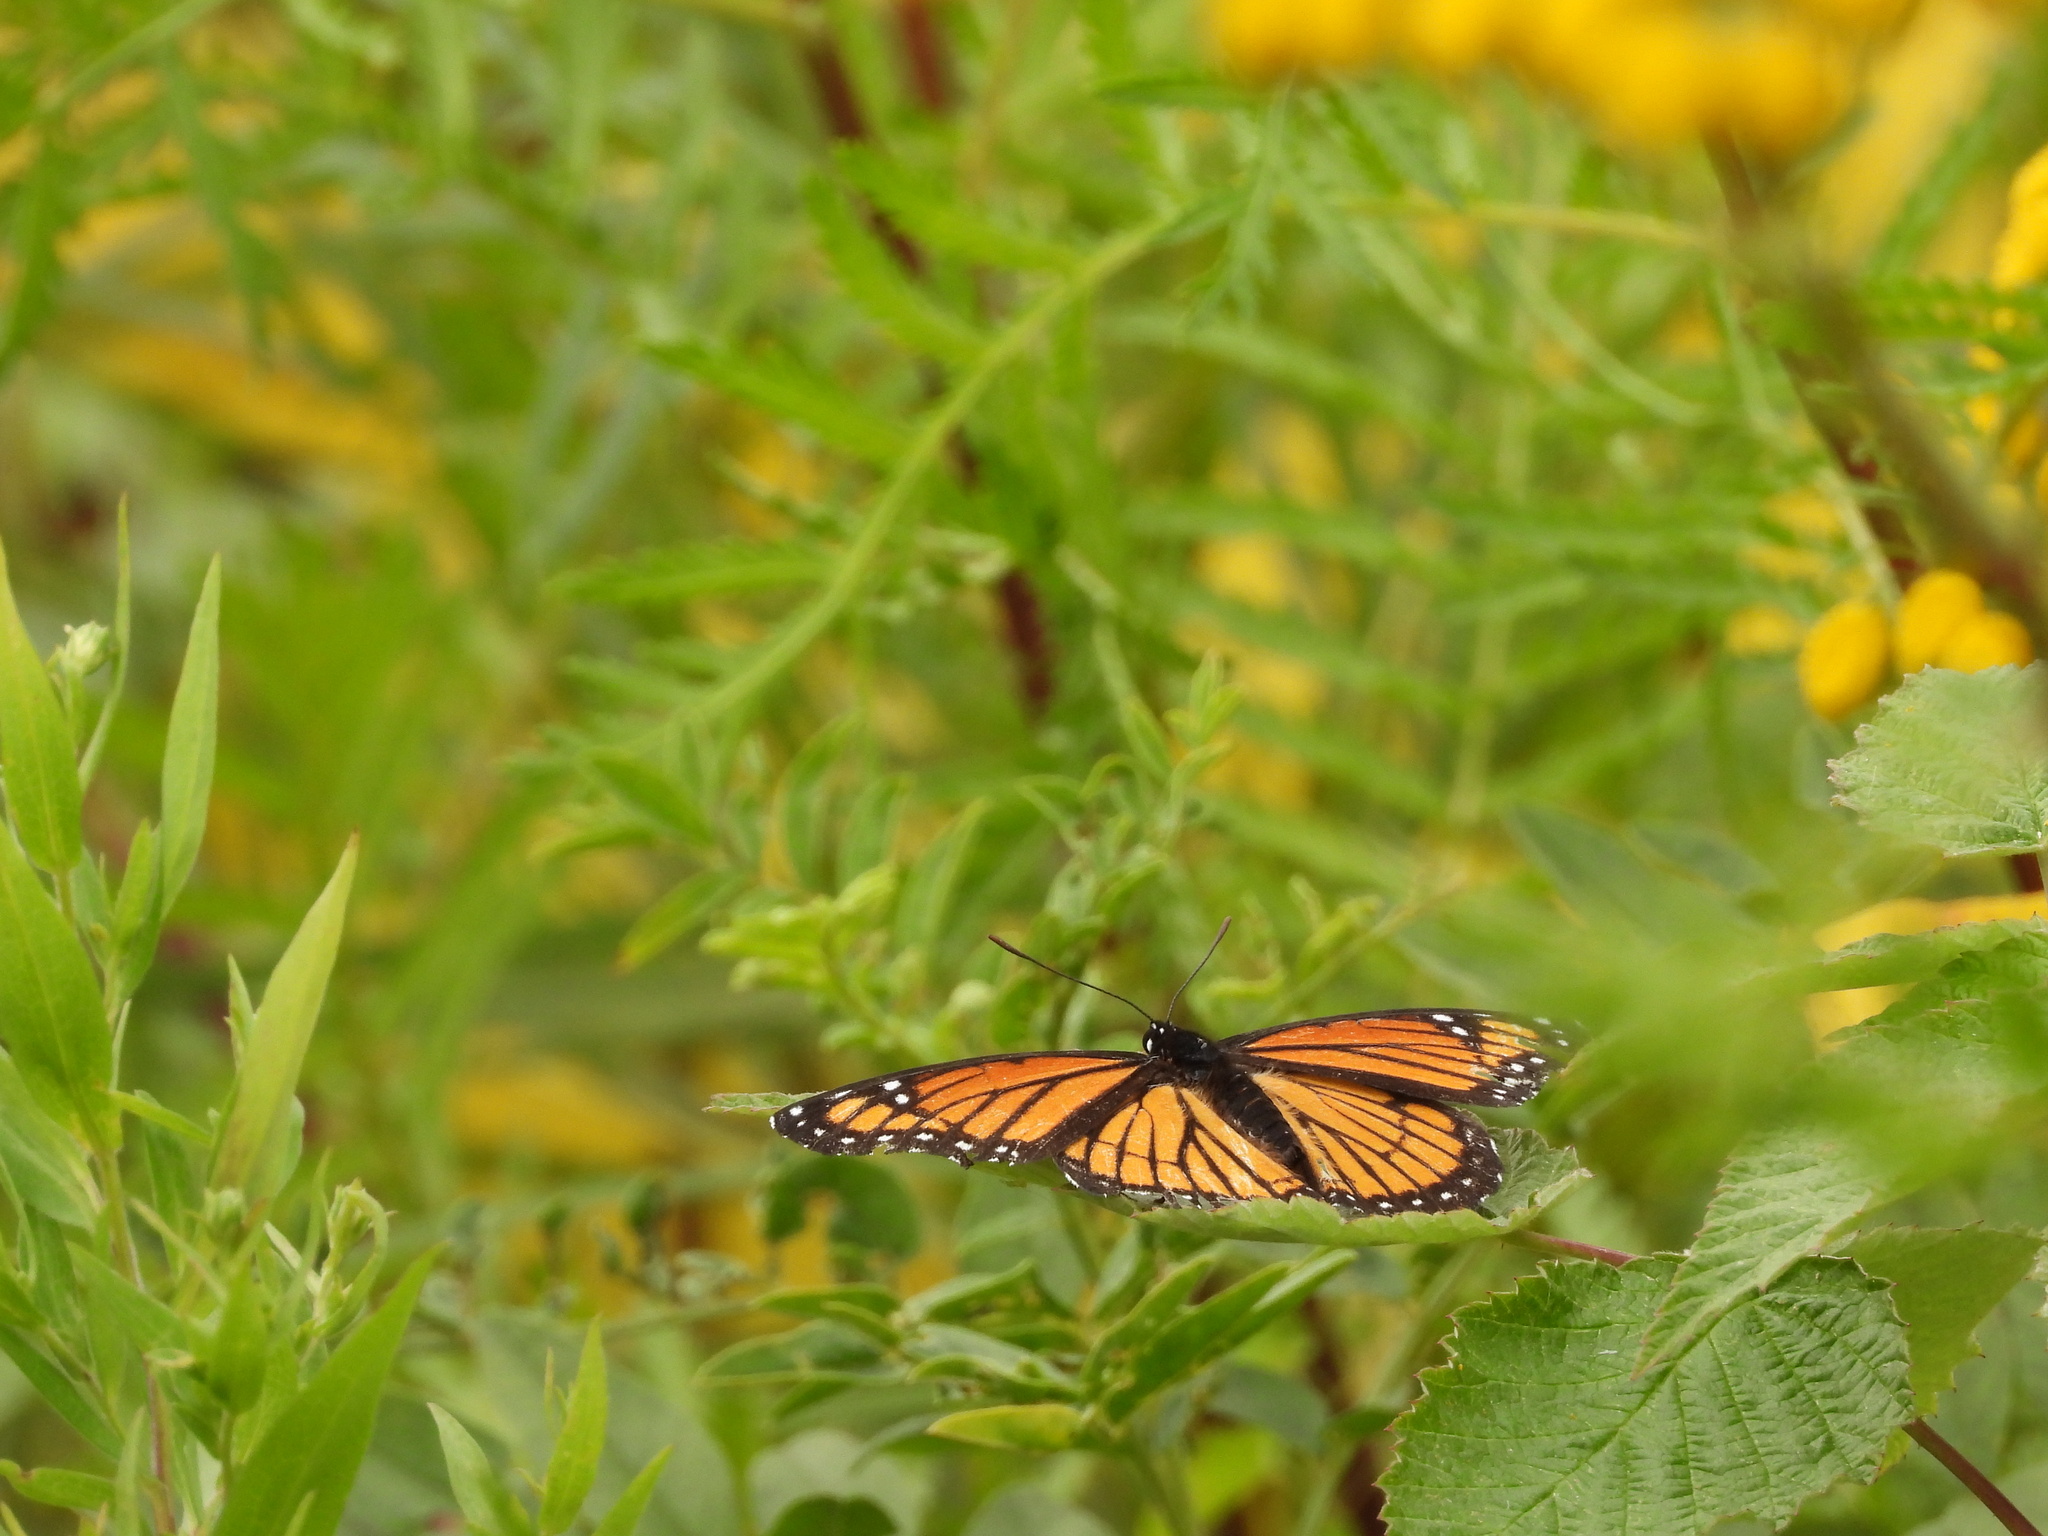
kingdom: Animalia
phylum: Arthropoda
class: Insecta
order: Lepidoptera
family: Nymphalidae
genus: Limenitis
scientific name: Limenitis archippus
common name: Viceroy
